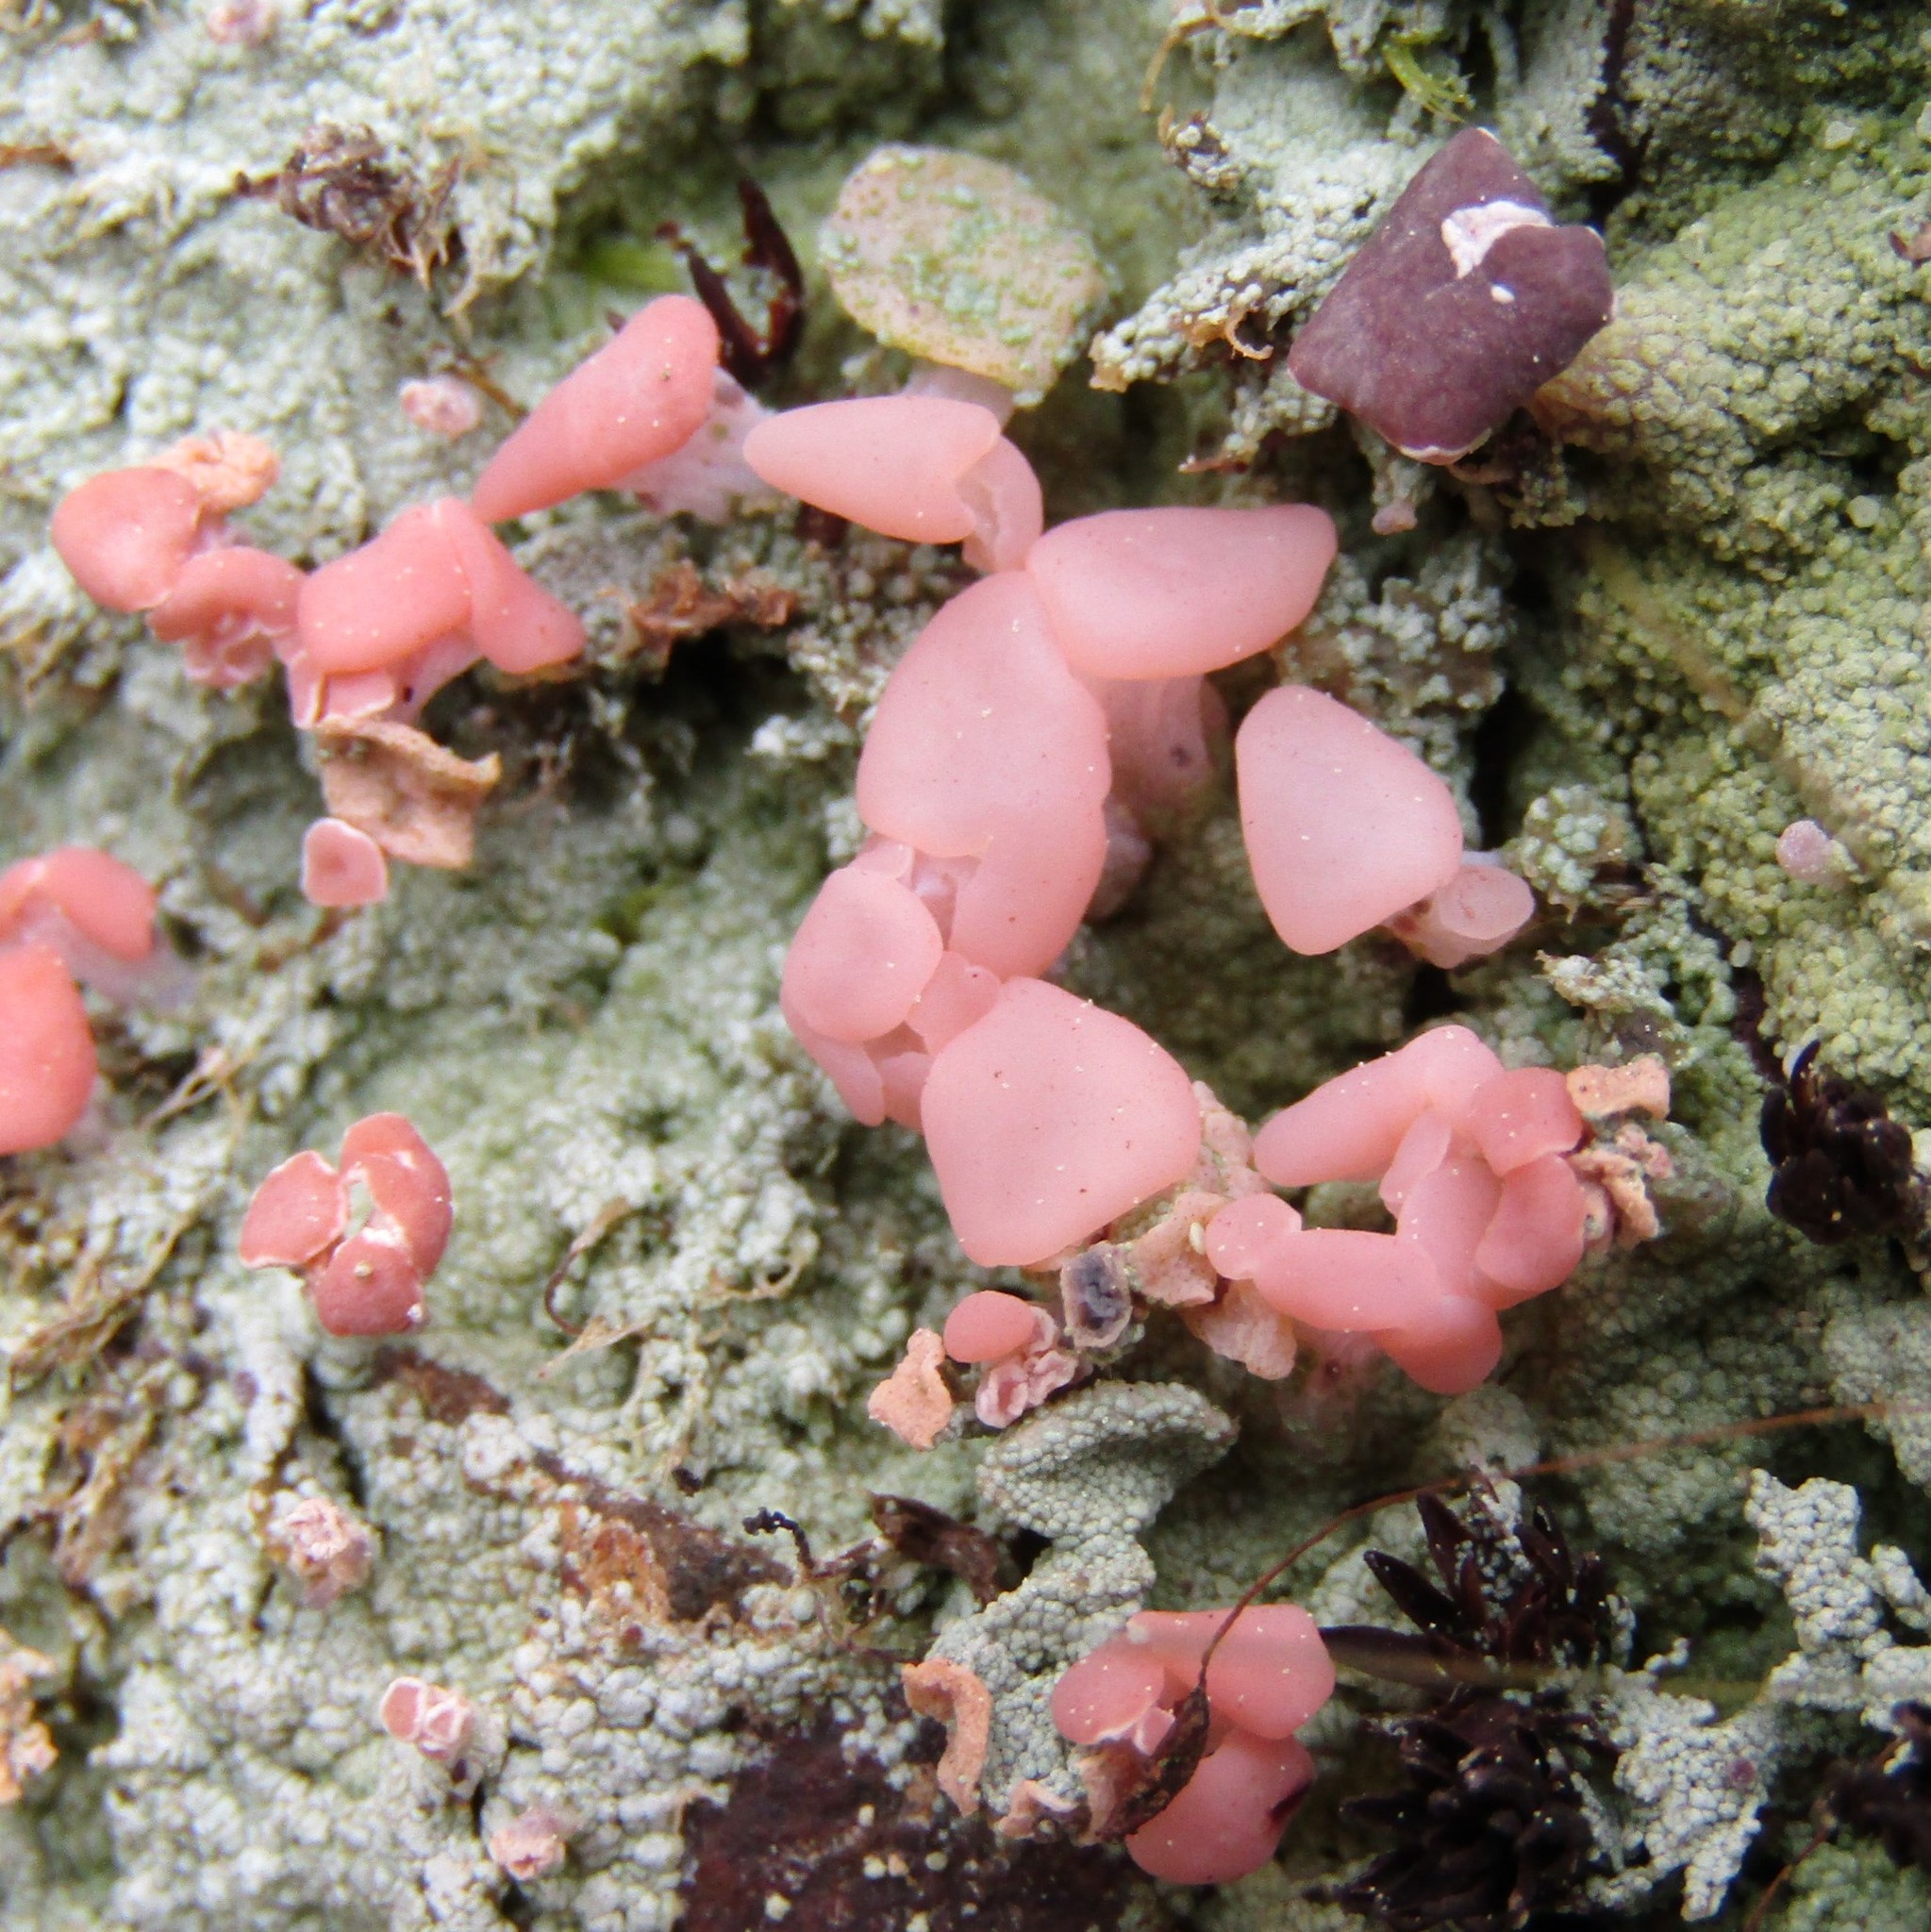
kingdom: Fungi
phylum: Ascomycota
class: Lecanoromycetes
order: Baeomycetales
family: Baeomycetaceae
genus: Baeomyces
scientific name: Baeomyces heteromorphus
